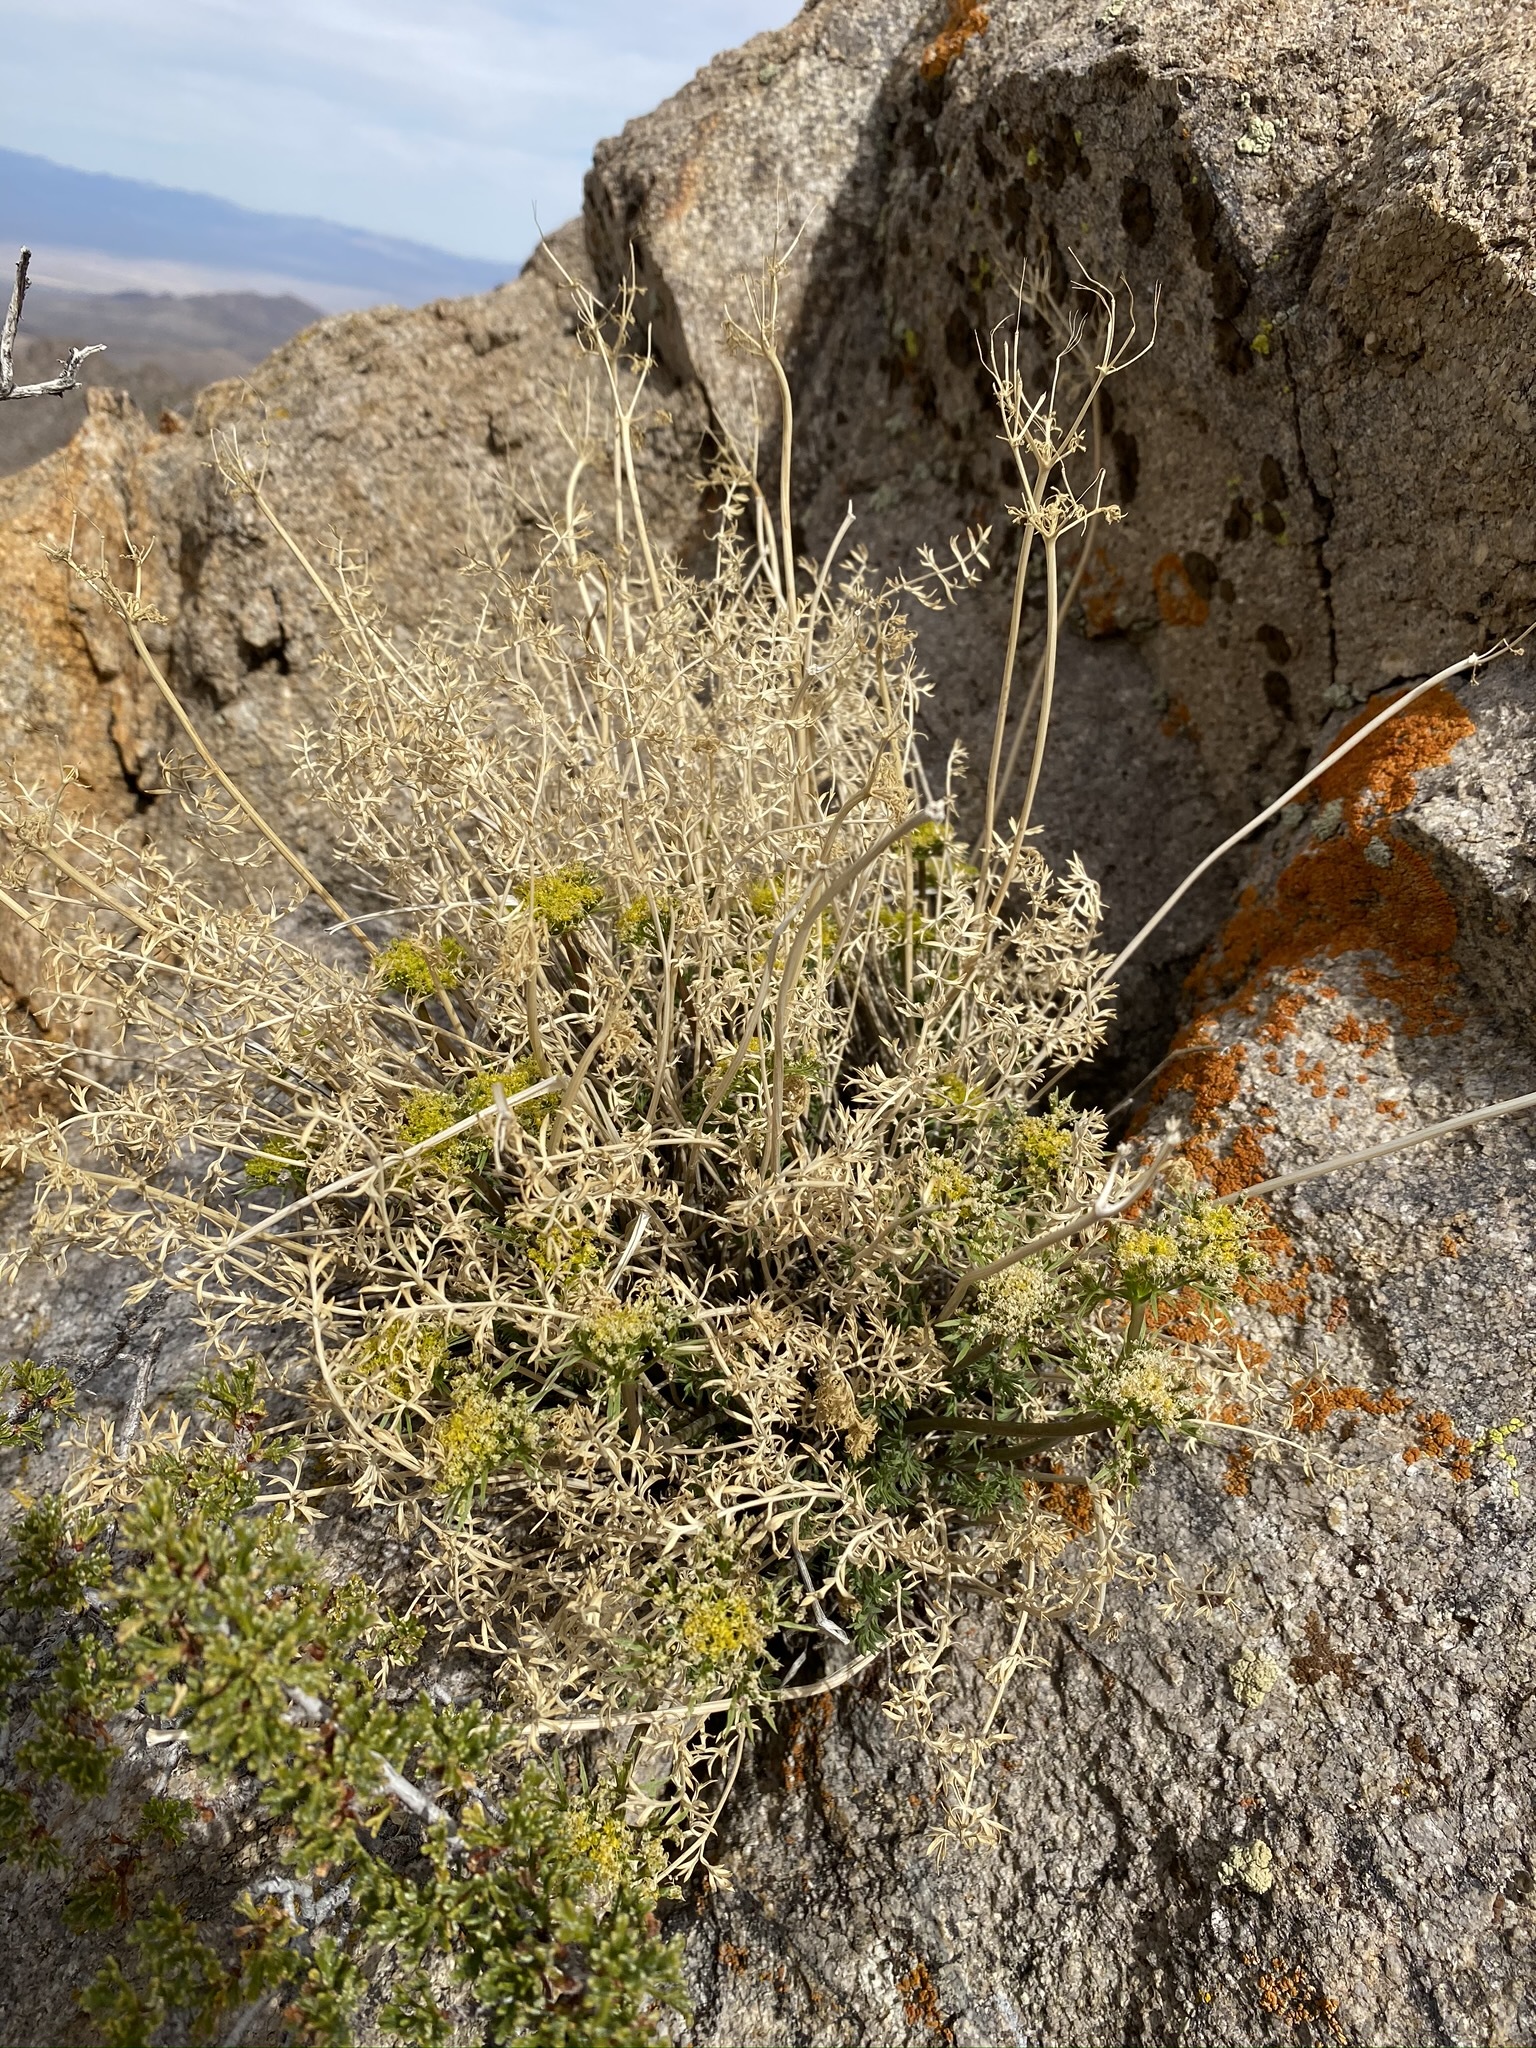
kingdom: Plantae
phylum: Tracheophyta
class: Magnoliopsida
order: Apiales
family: Apiaceae
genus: Lomatium
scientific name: Lomatium parryi
